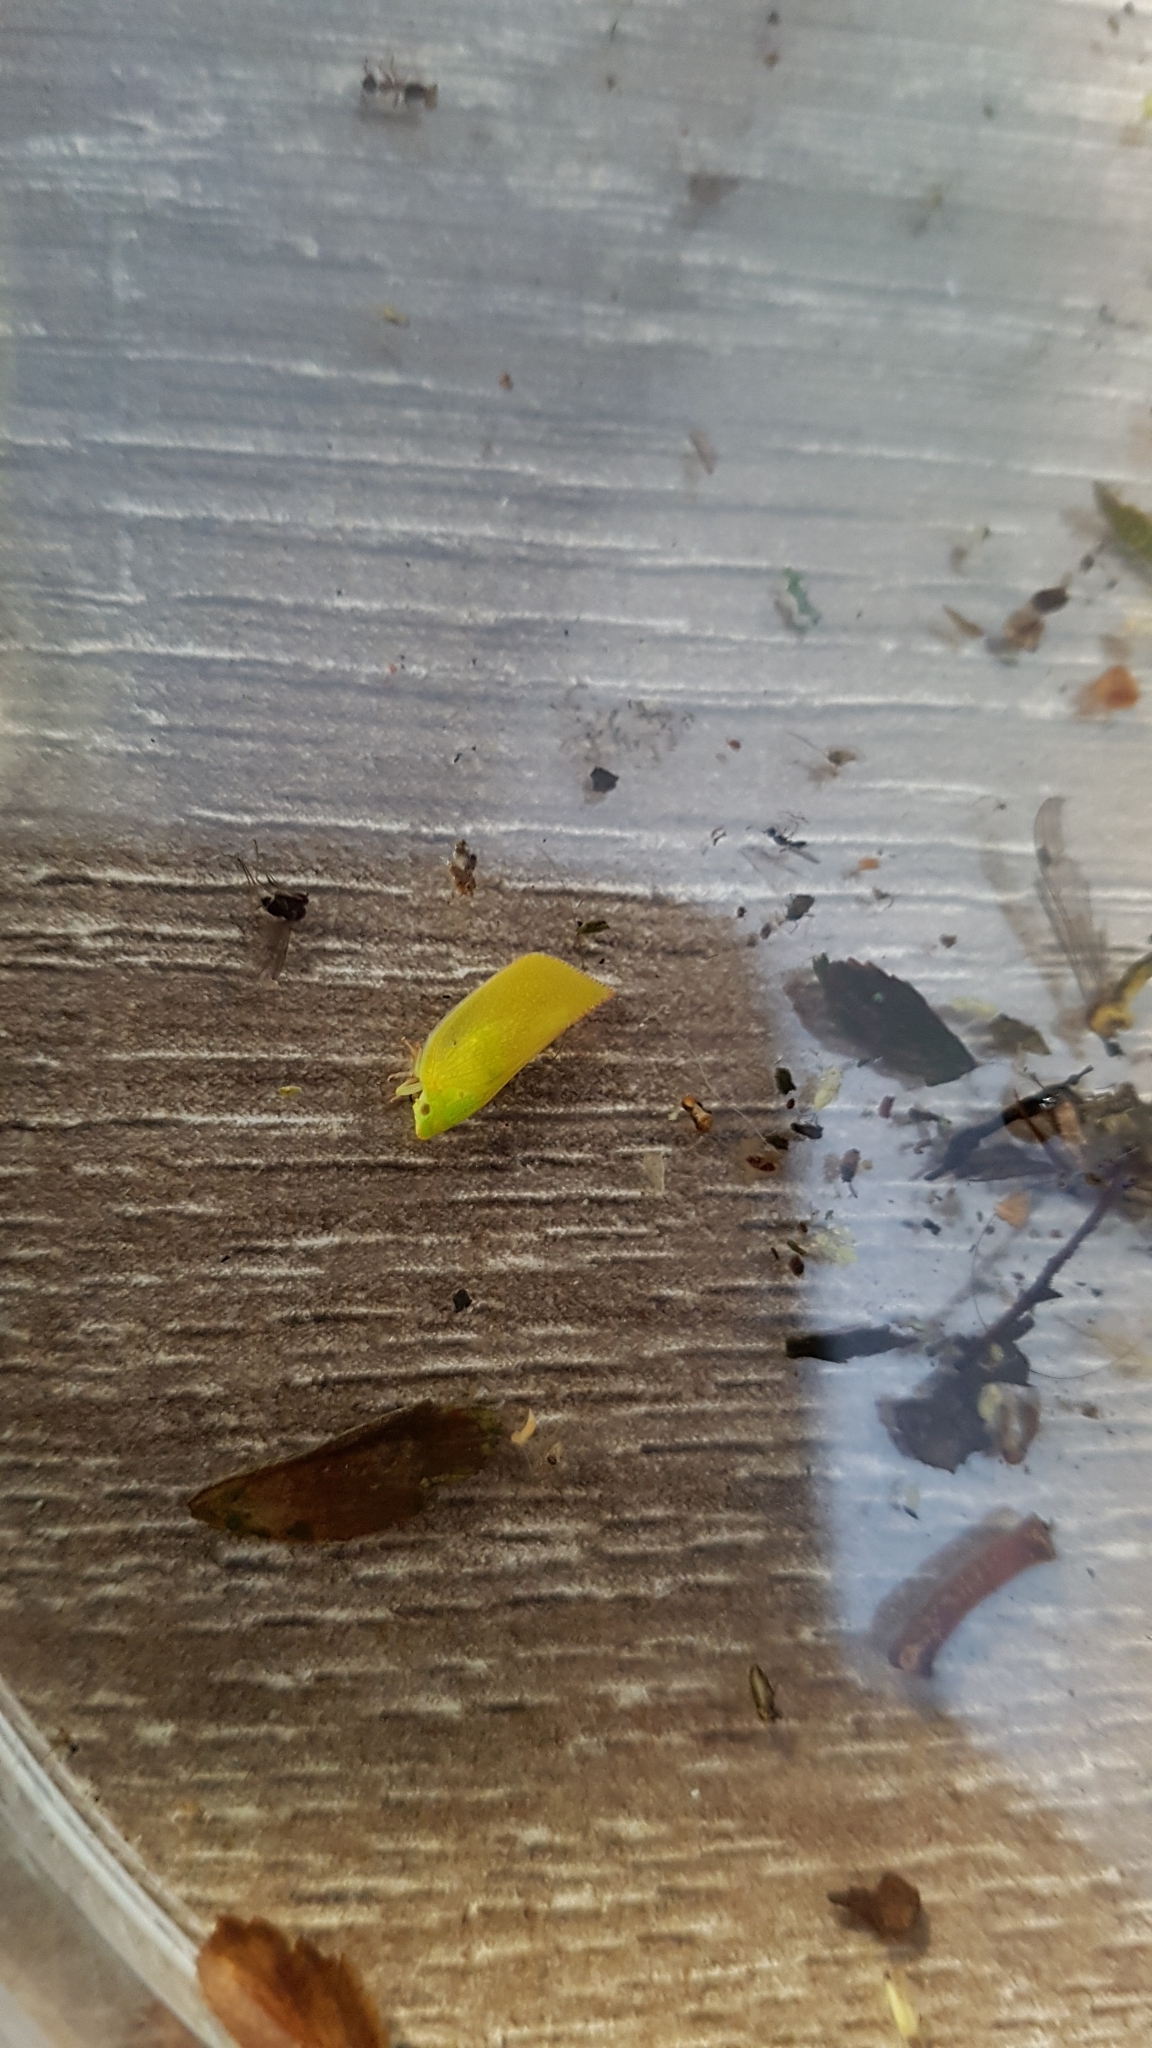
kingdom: Animalia
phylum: Arthropoda
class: Insecta
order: Hemiptera
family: Flatidae
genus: Siphanta
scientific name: Siphanta acuta
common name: Torpedo bug
